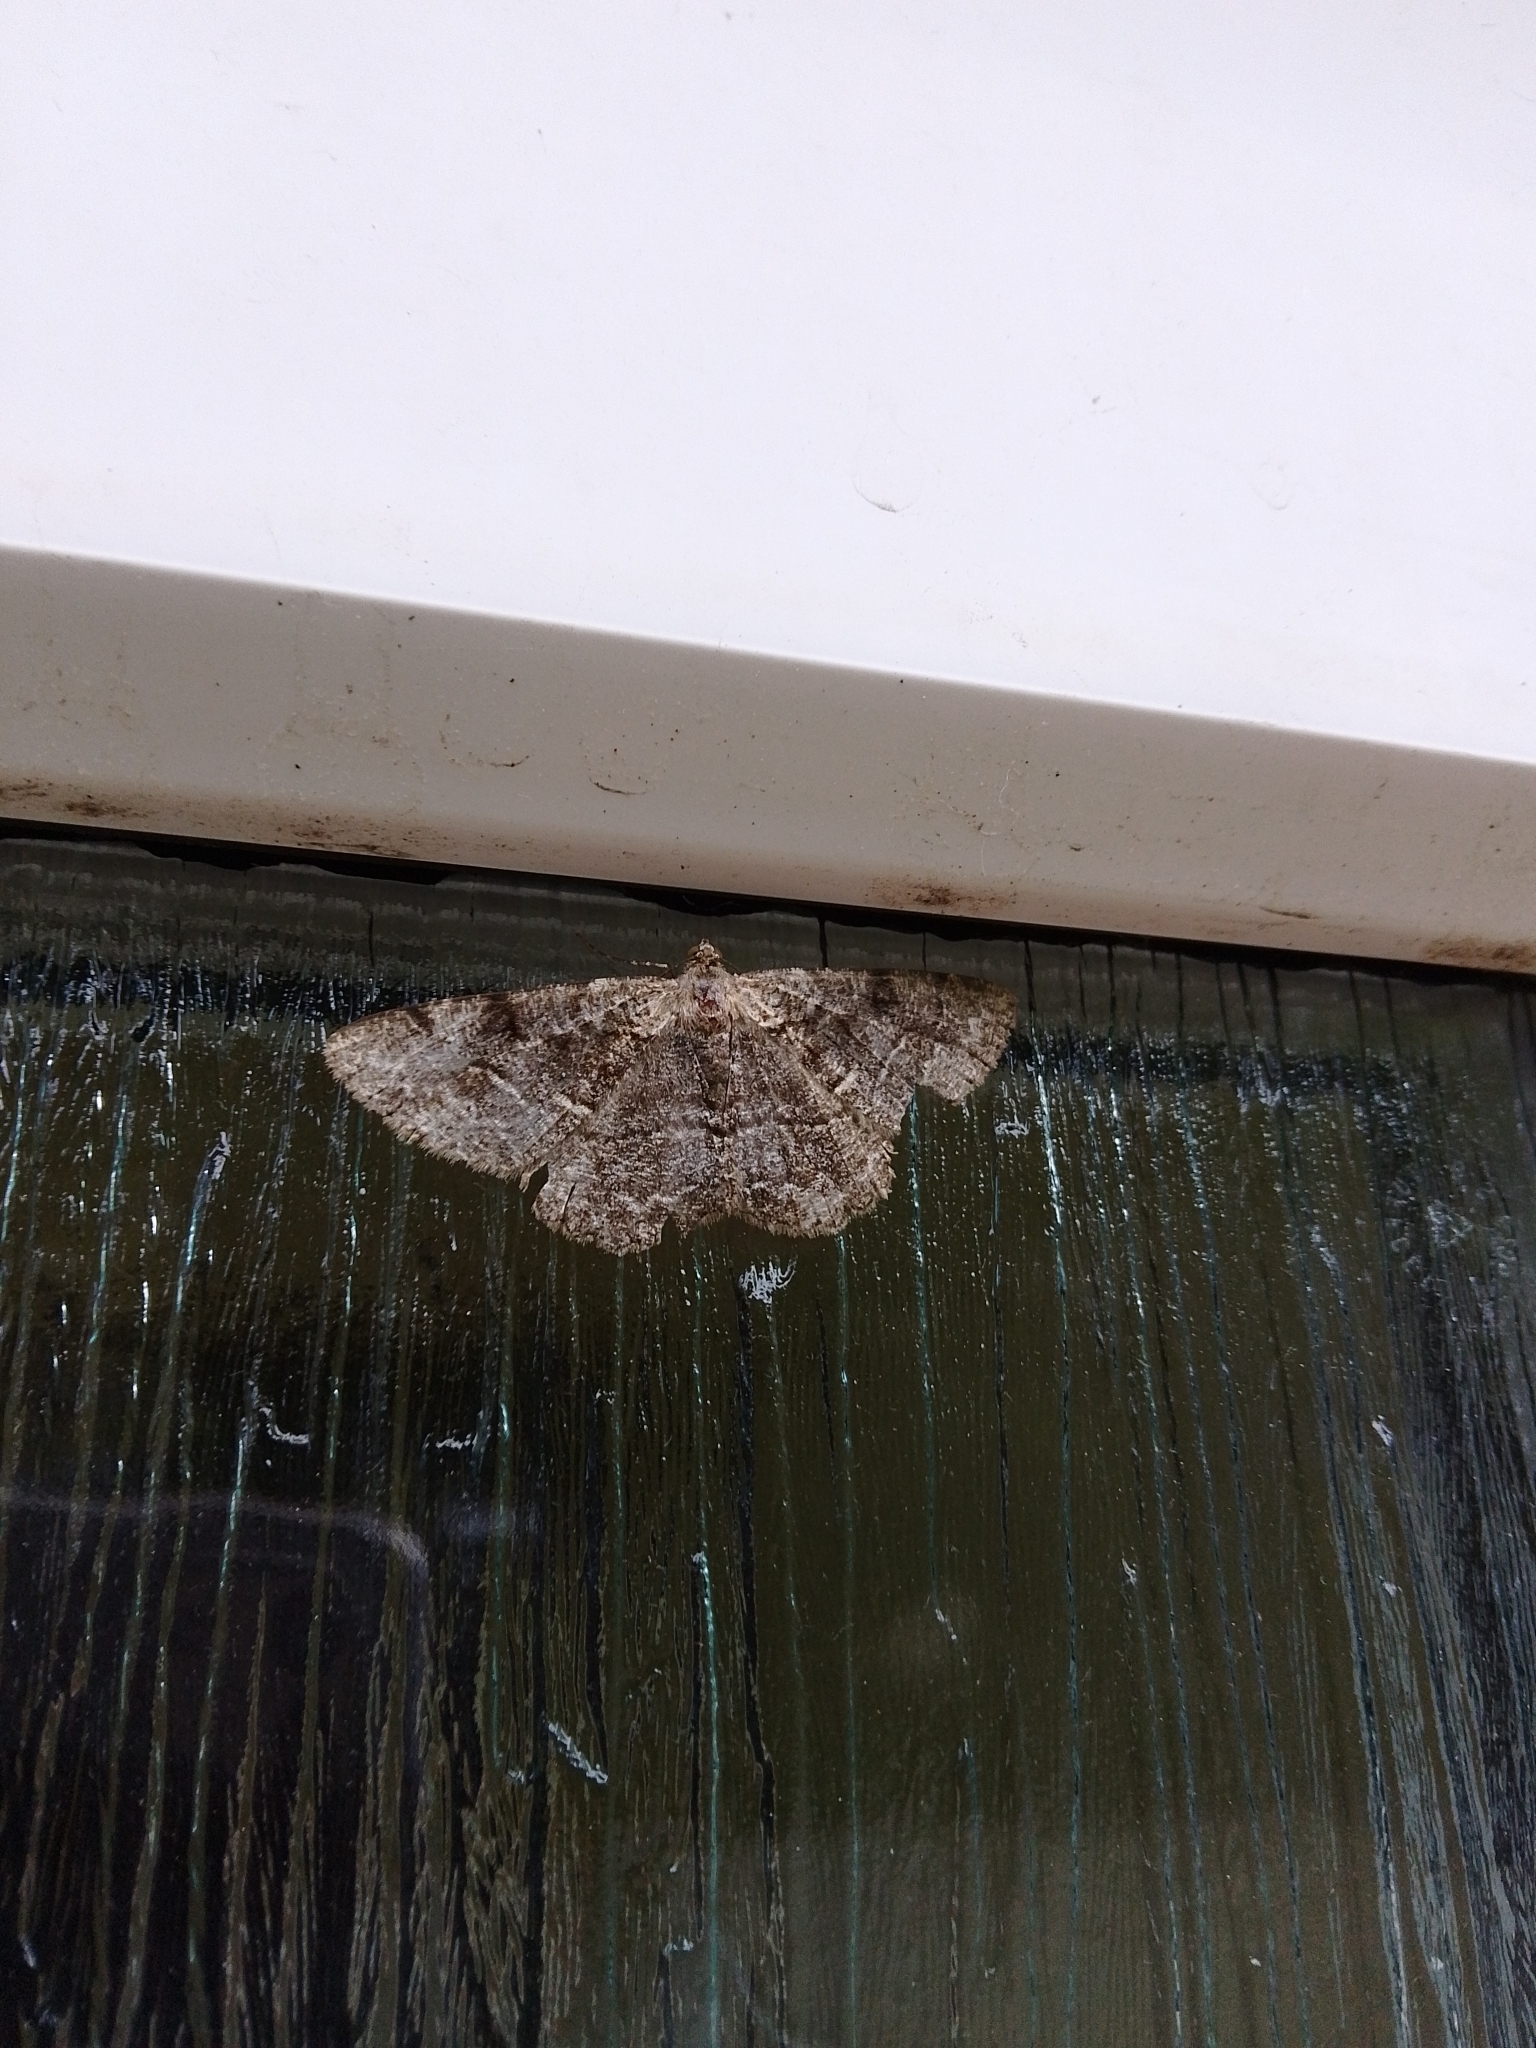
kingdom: Animalia
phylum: Arthropoda
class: Insecta
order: Lepidoptera
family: Geometridae
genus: Alcis
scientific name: Alcis repandata
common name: Mottled beauty
